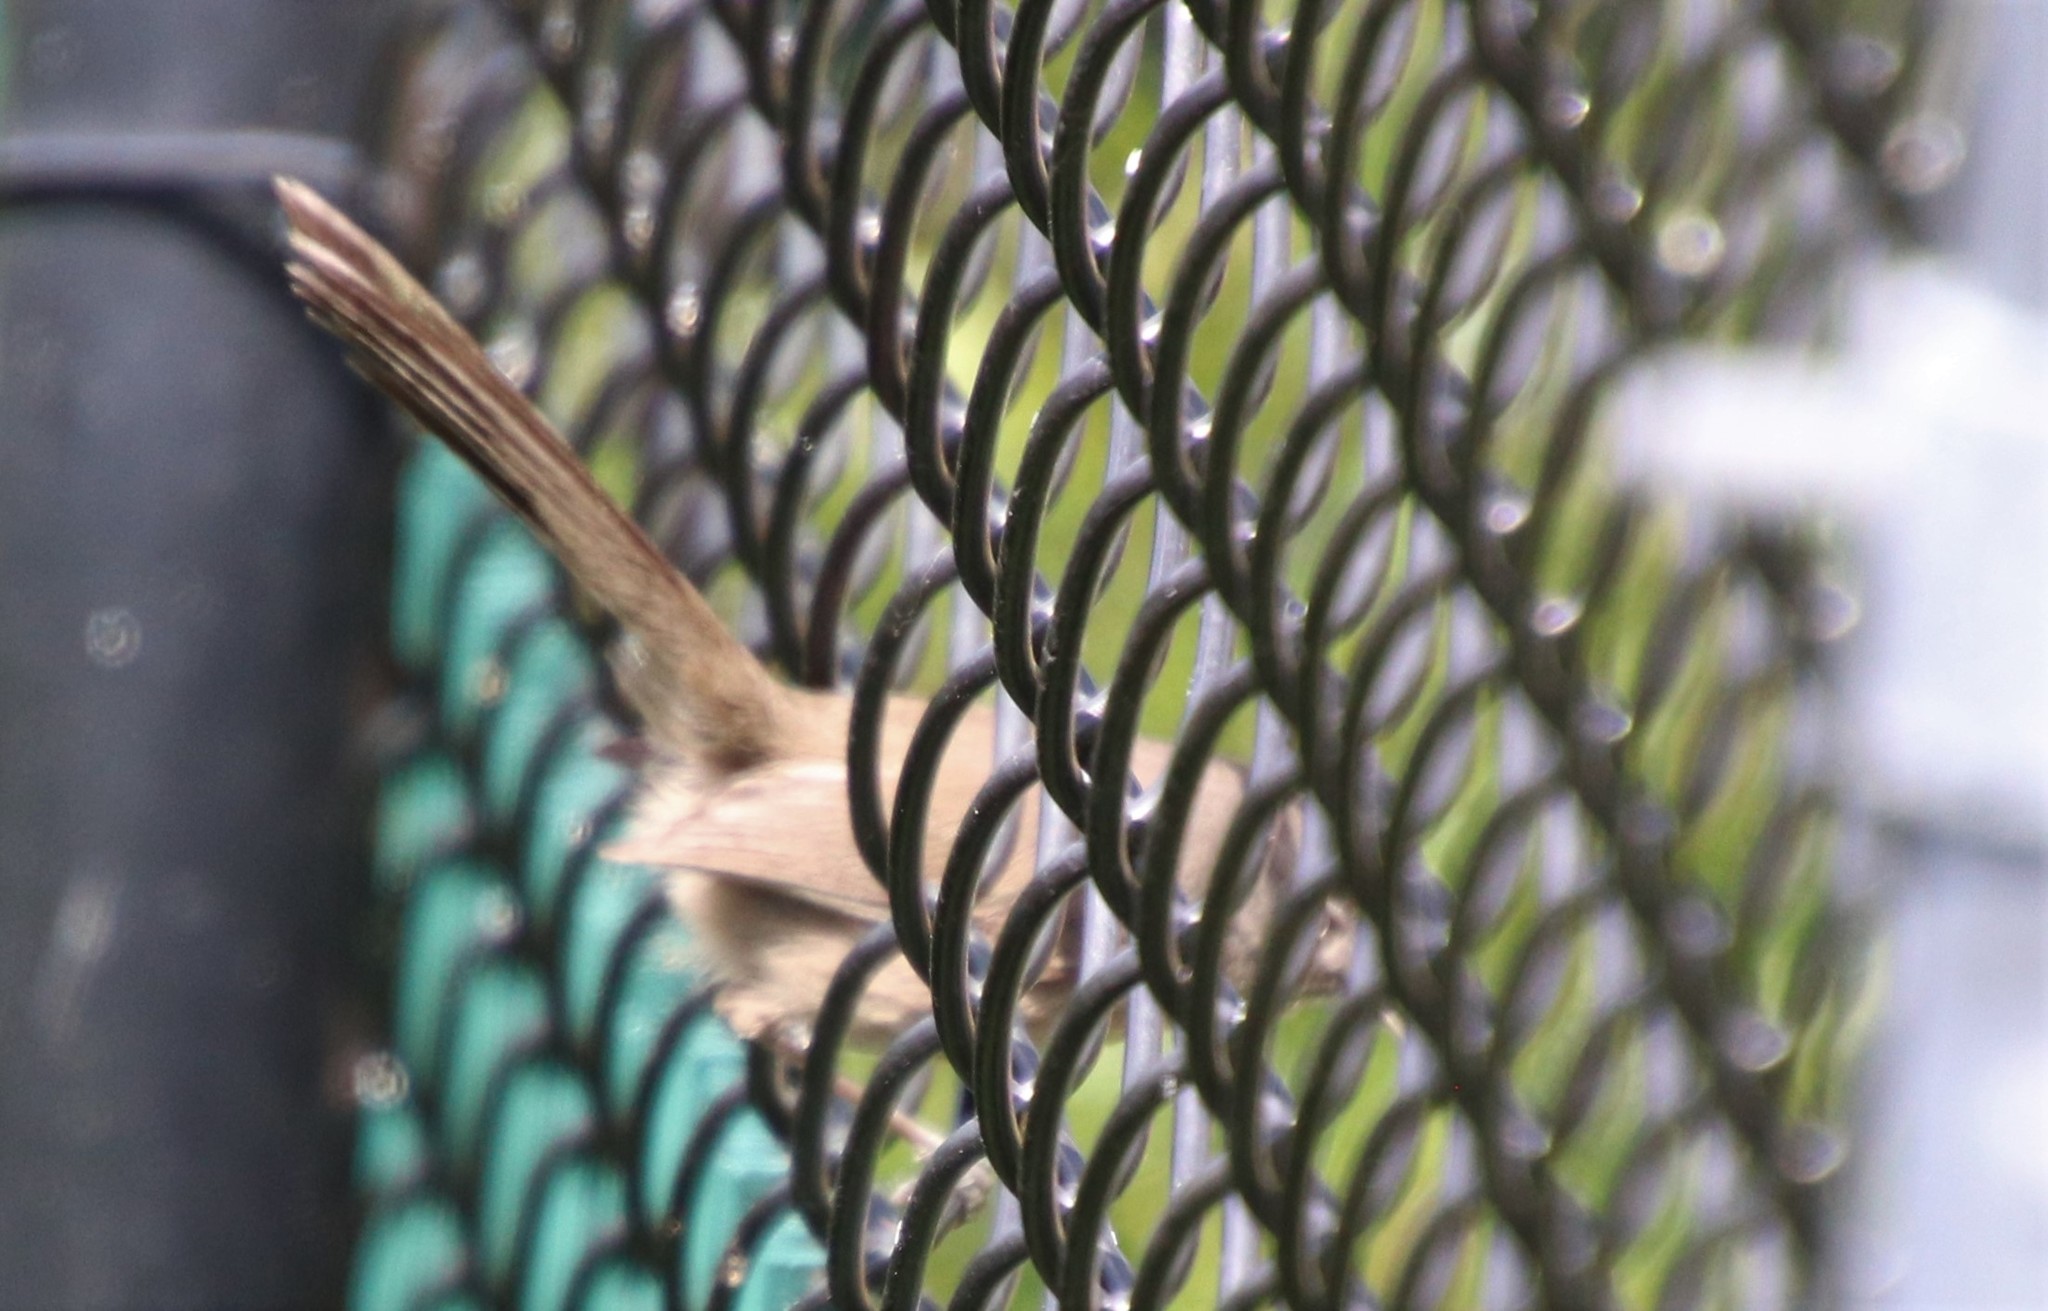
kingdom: Animalia
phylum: Chordata
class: Aves
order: Passeriformes
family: Sylviidae
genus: Chamaea
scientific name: Chamaea fasciata
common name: Wrentit
